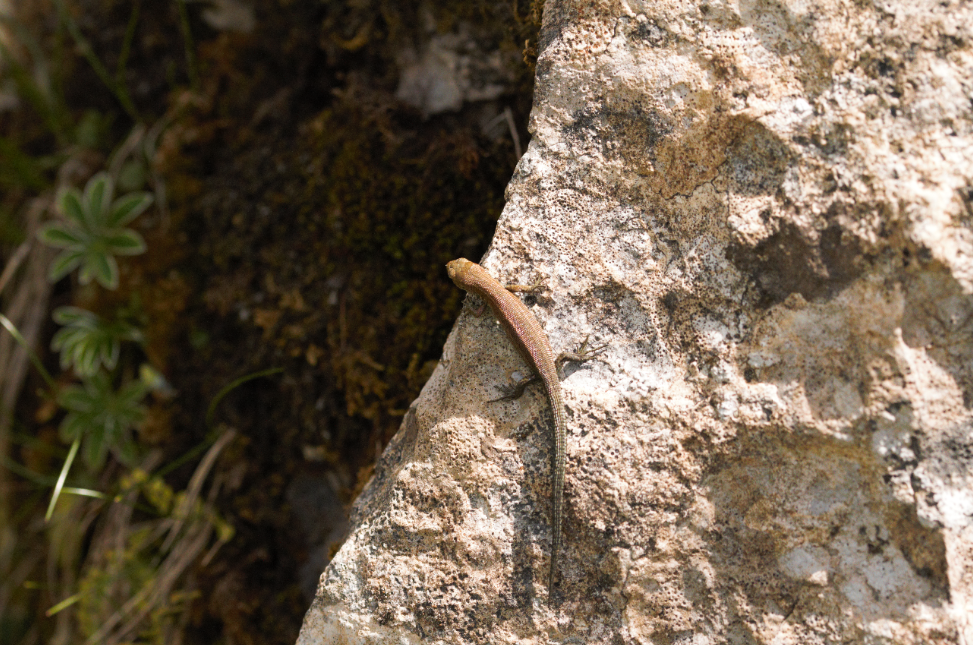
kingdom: Animalia
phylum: Chordata
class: Squamata
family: Lacertidae
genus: Zootoca
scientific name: Zootoca vivipara
